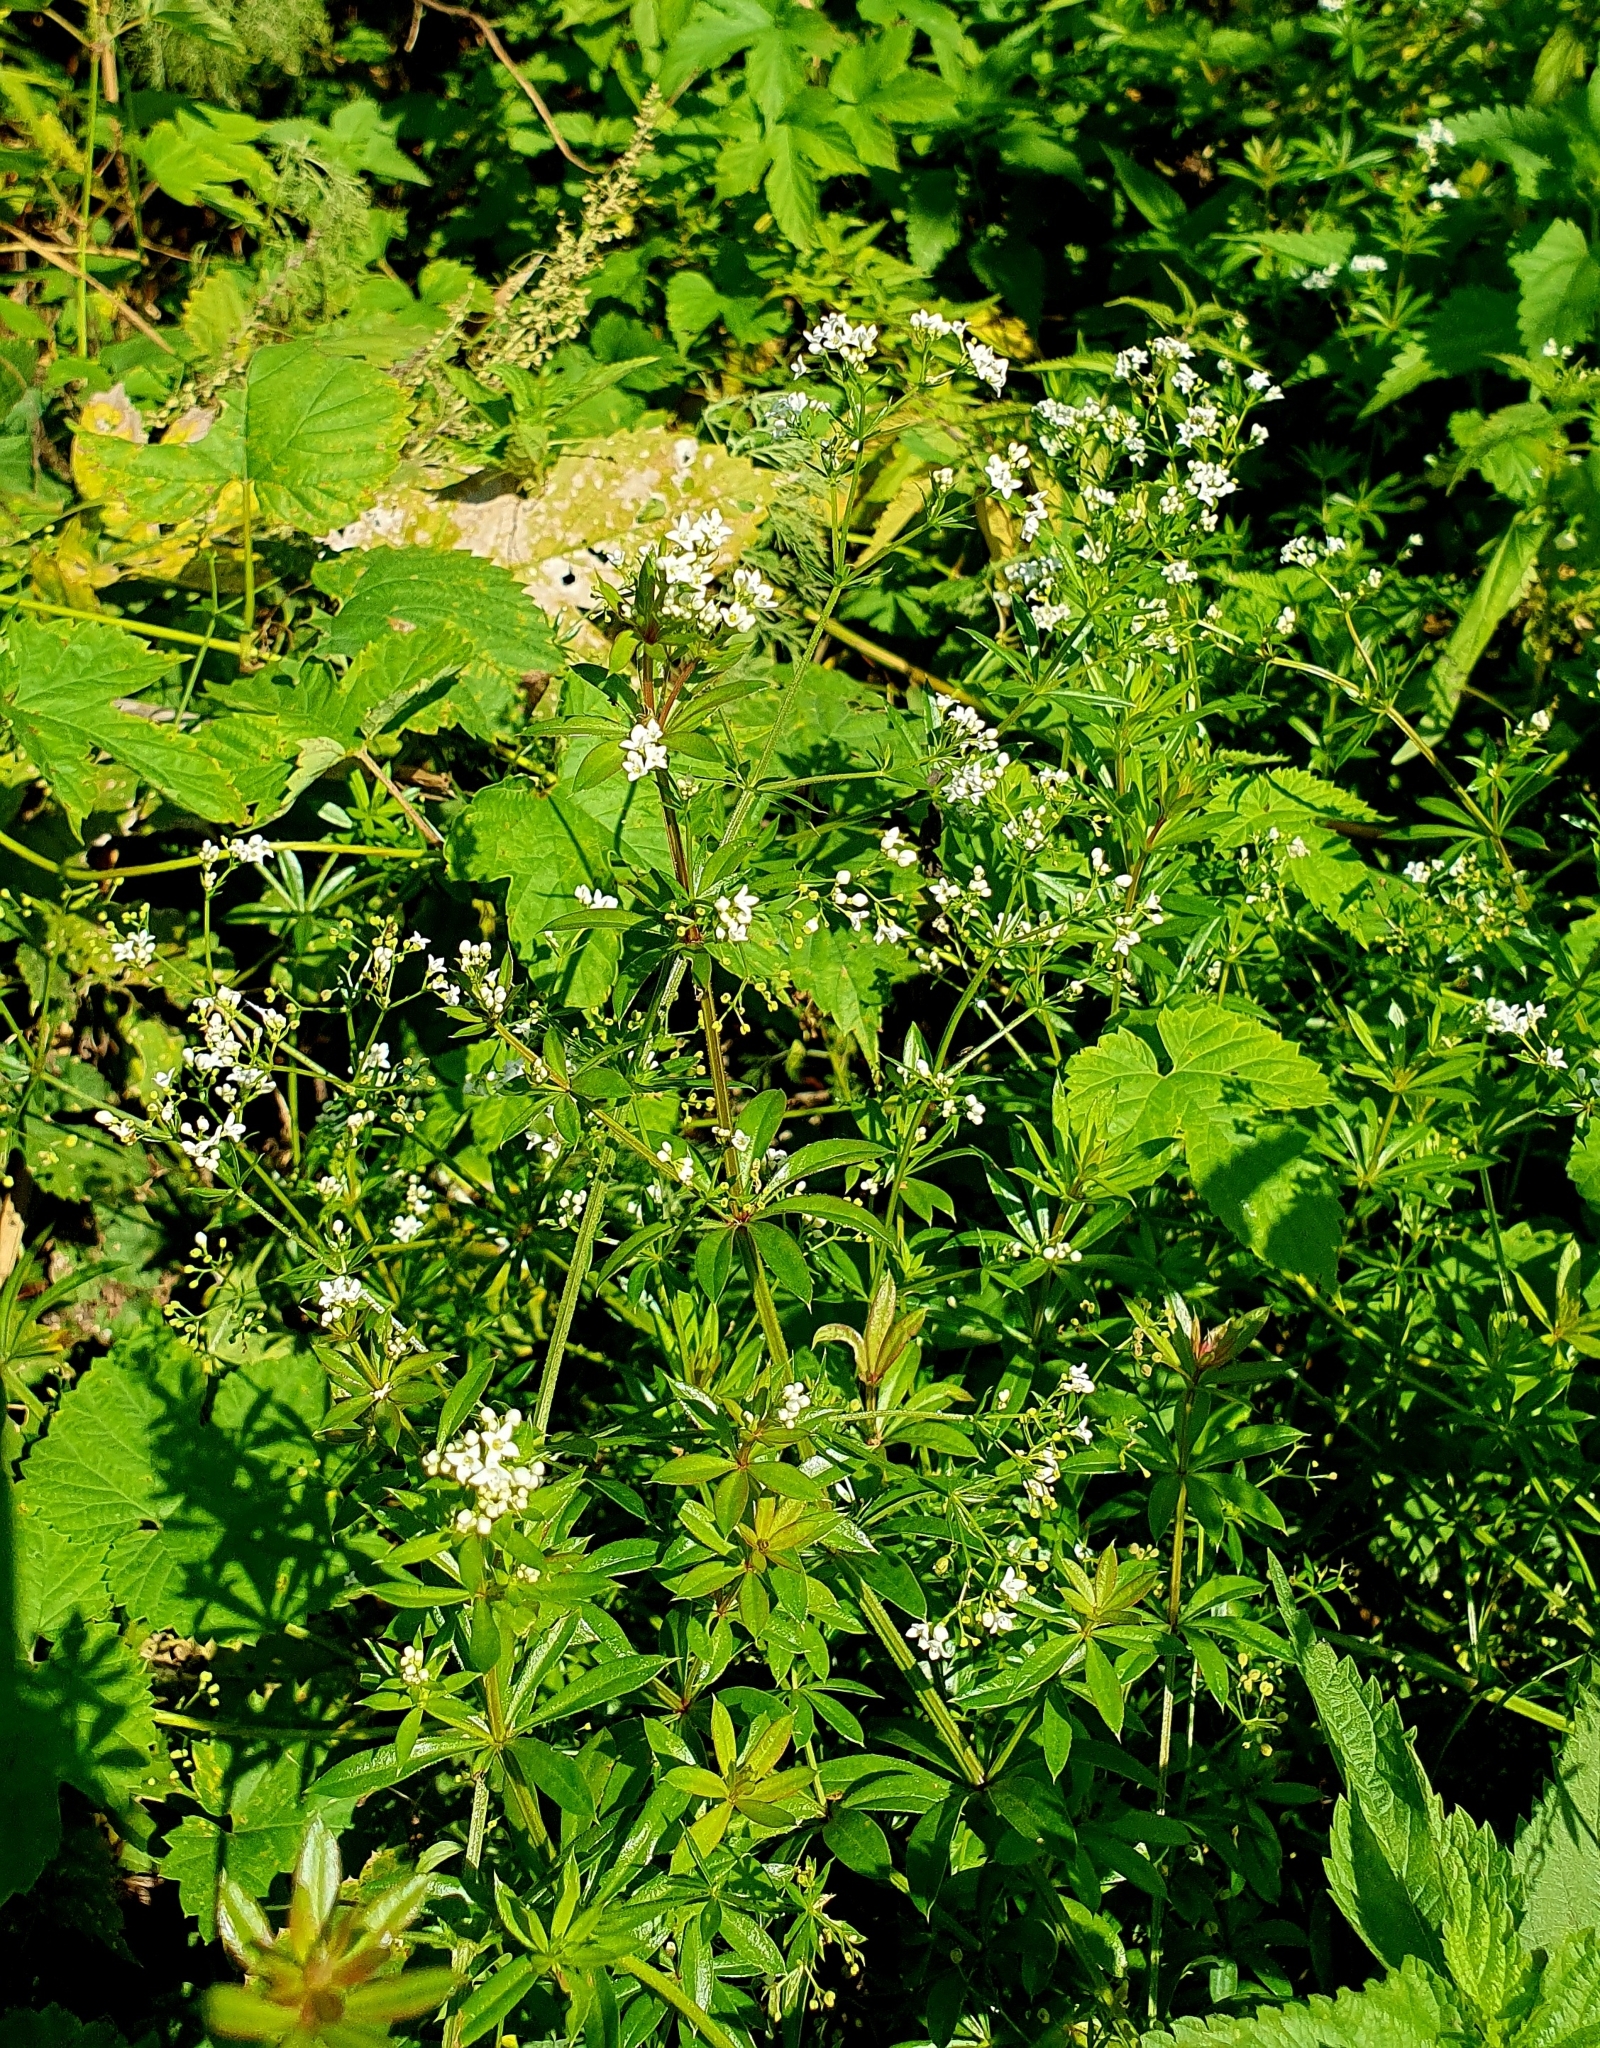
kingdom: Plantae
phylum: Tracheophyta
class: Magnoliopsida
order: Gentianales
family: Rubiaceae
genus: Galium
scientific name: Galium rivale
